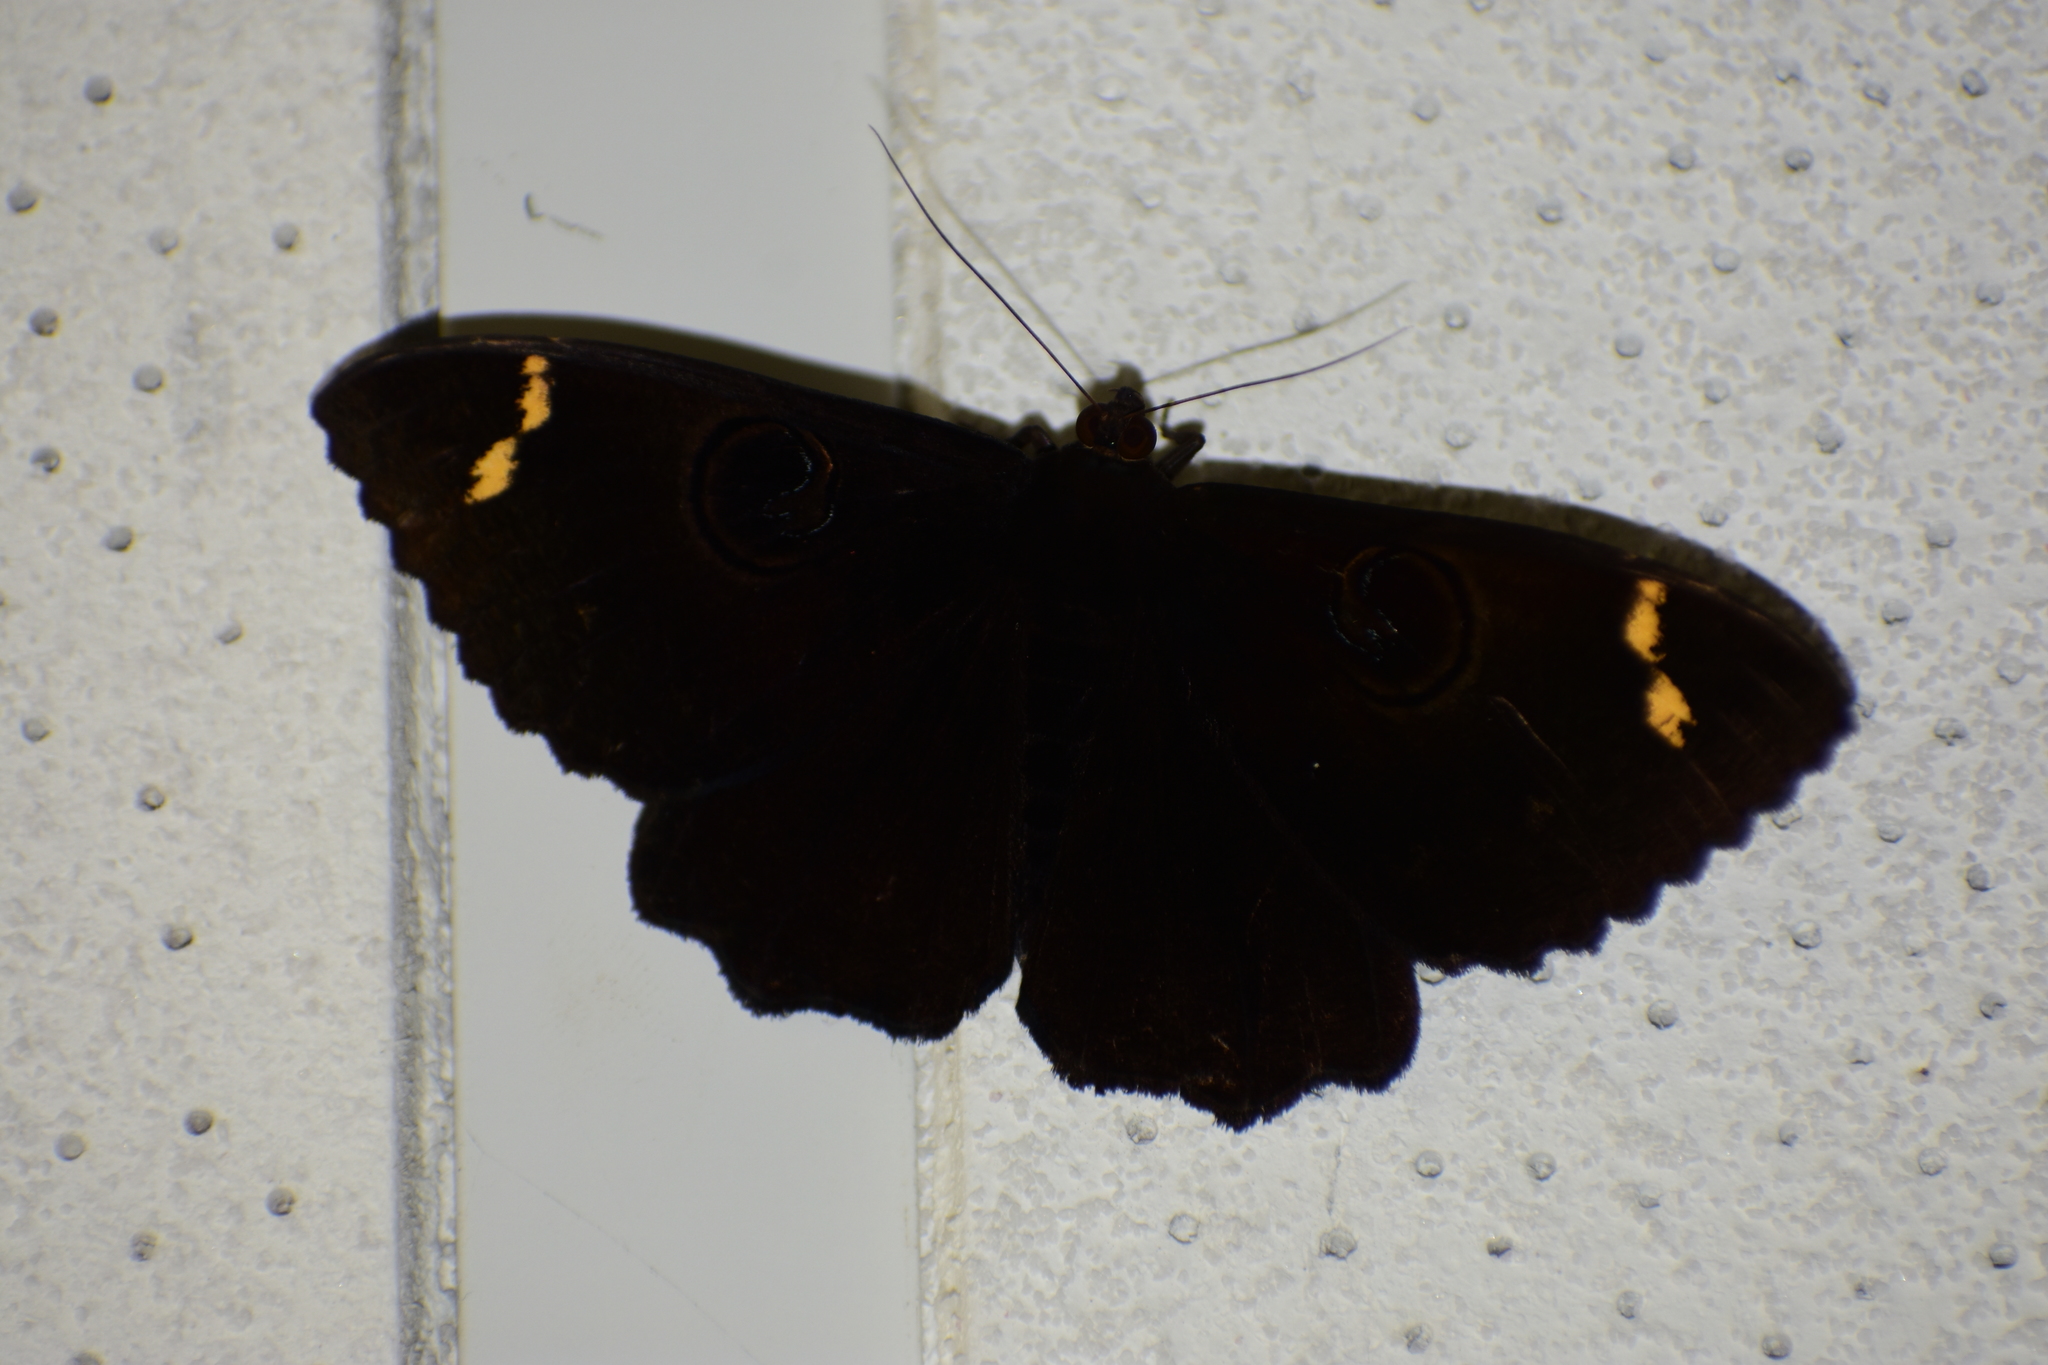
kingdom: Animalia
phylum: Arthropoda
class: Insecta
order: Lepidoptera
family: Erebidae
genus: Erebus
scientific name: Erebus hieroglyphica
